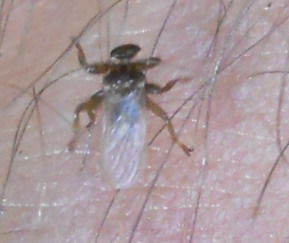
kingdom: Animalia
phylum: Arthropoda
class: Insecta
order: Diptera
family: Hippoboscidae
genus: Lipoptena
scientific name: Lipoptena cervi
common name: Deer ked
